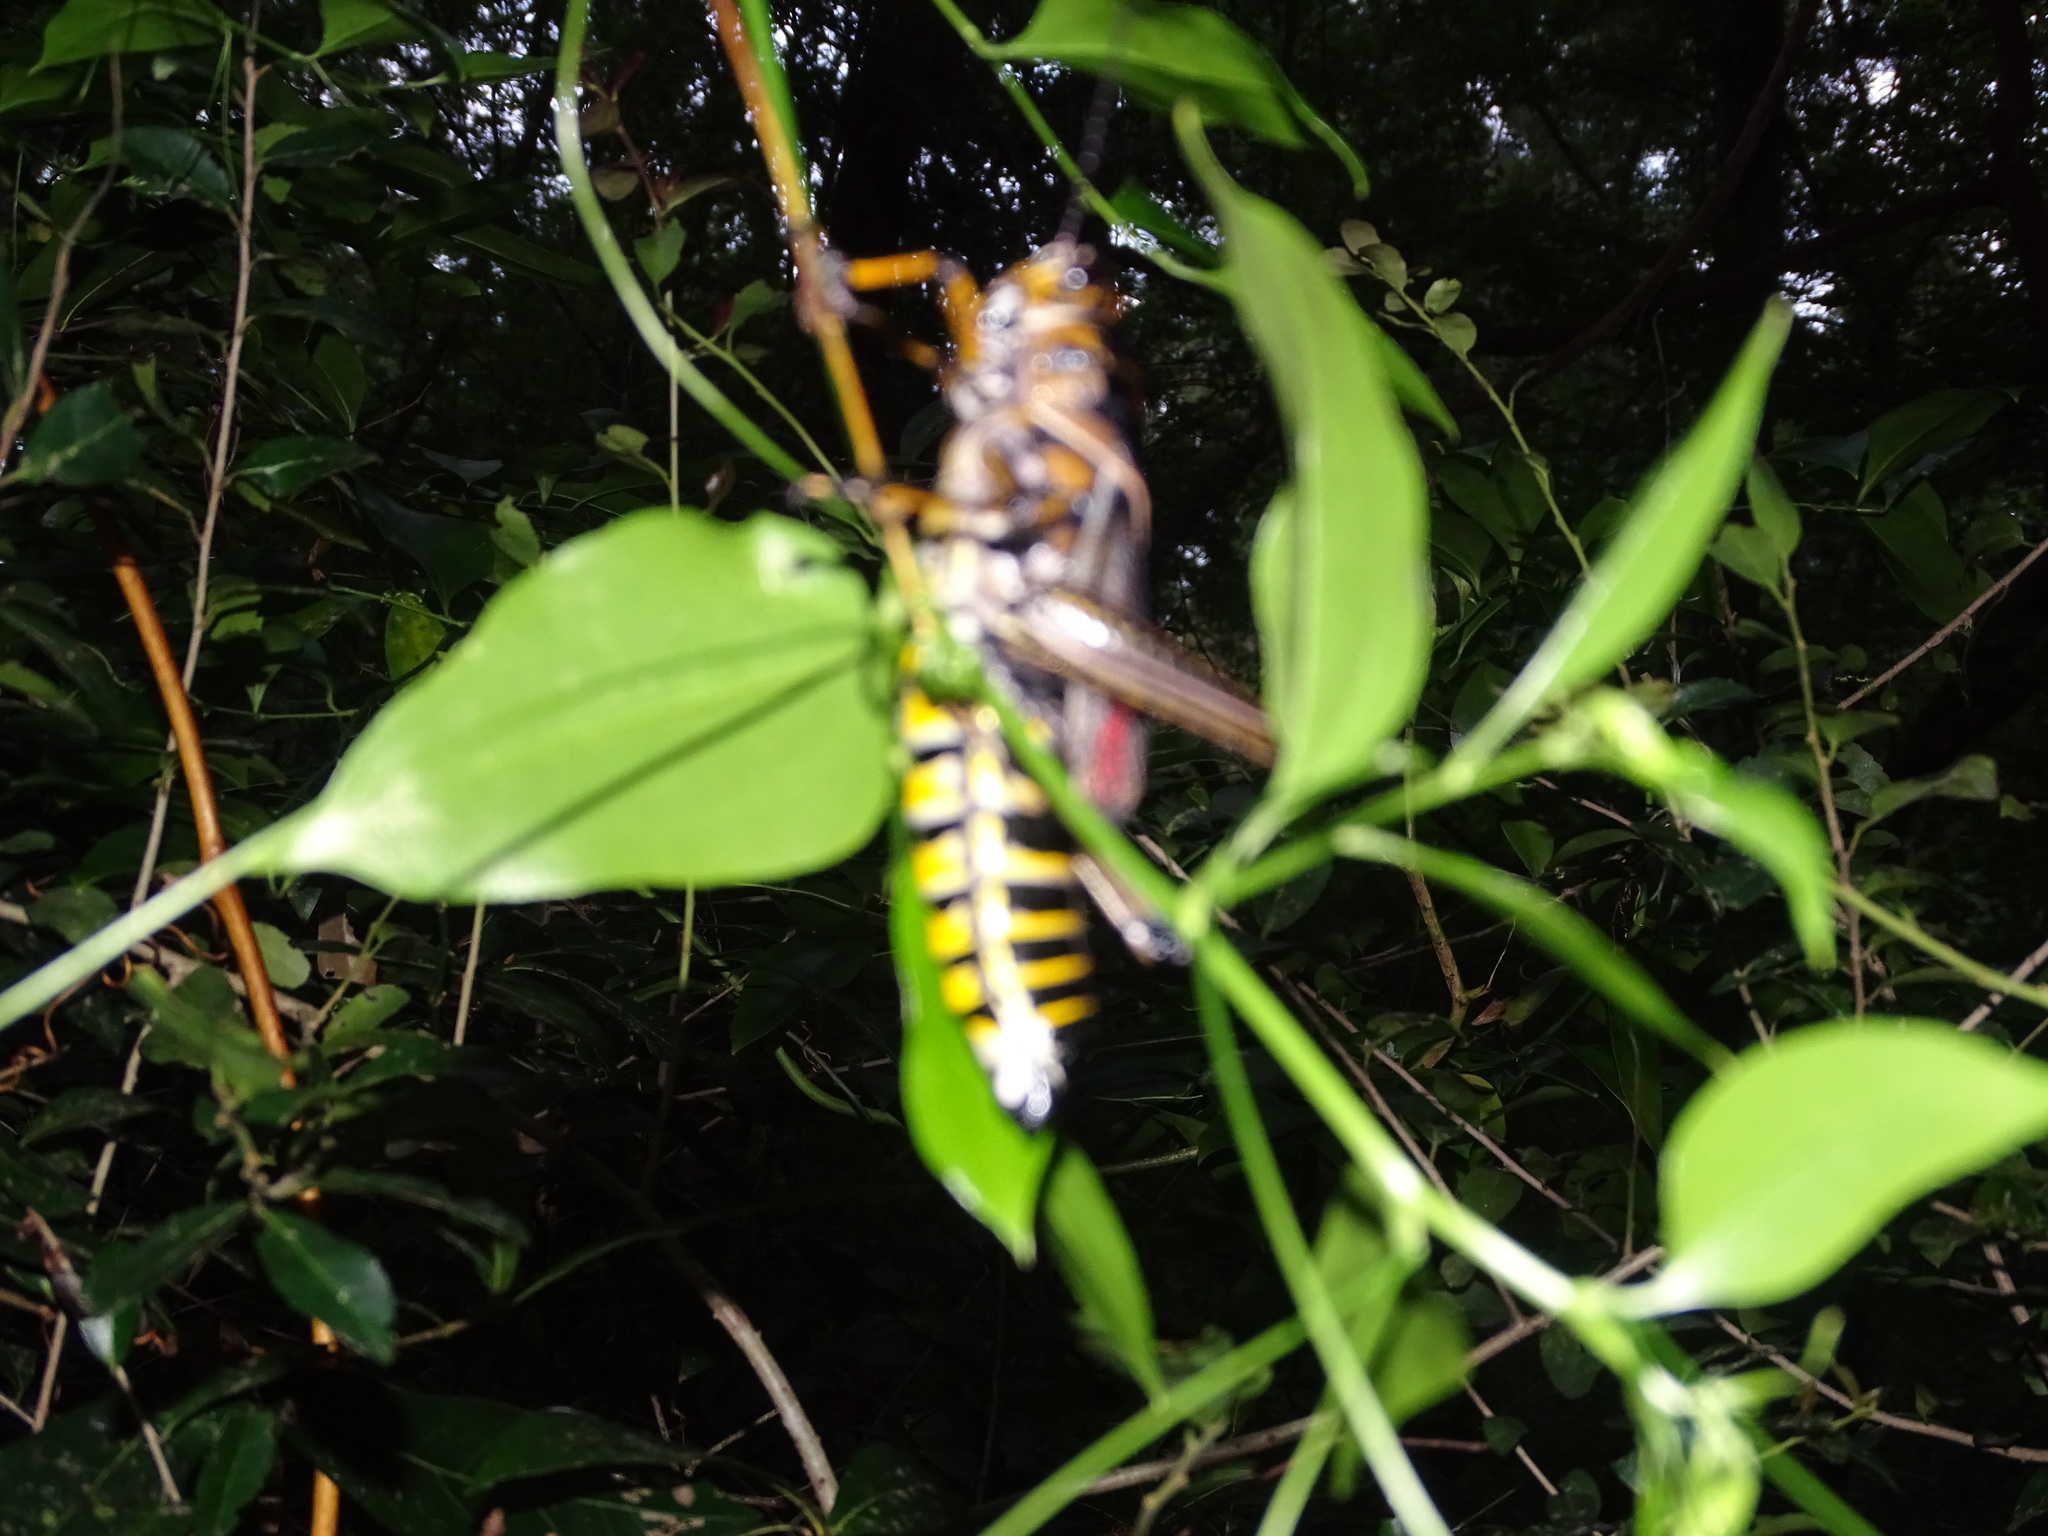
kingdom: Animalia
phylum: Arthropoda
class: Insecta
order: Orthoptera
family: Romaleidae
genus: Romalea
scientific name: Romalea microptera
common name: Eastern lubber grasshopper
